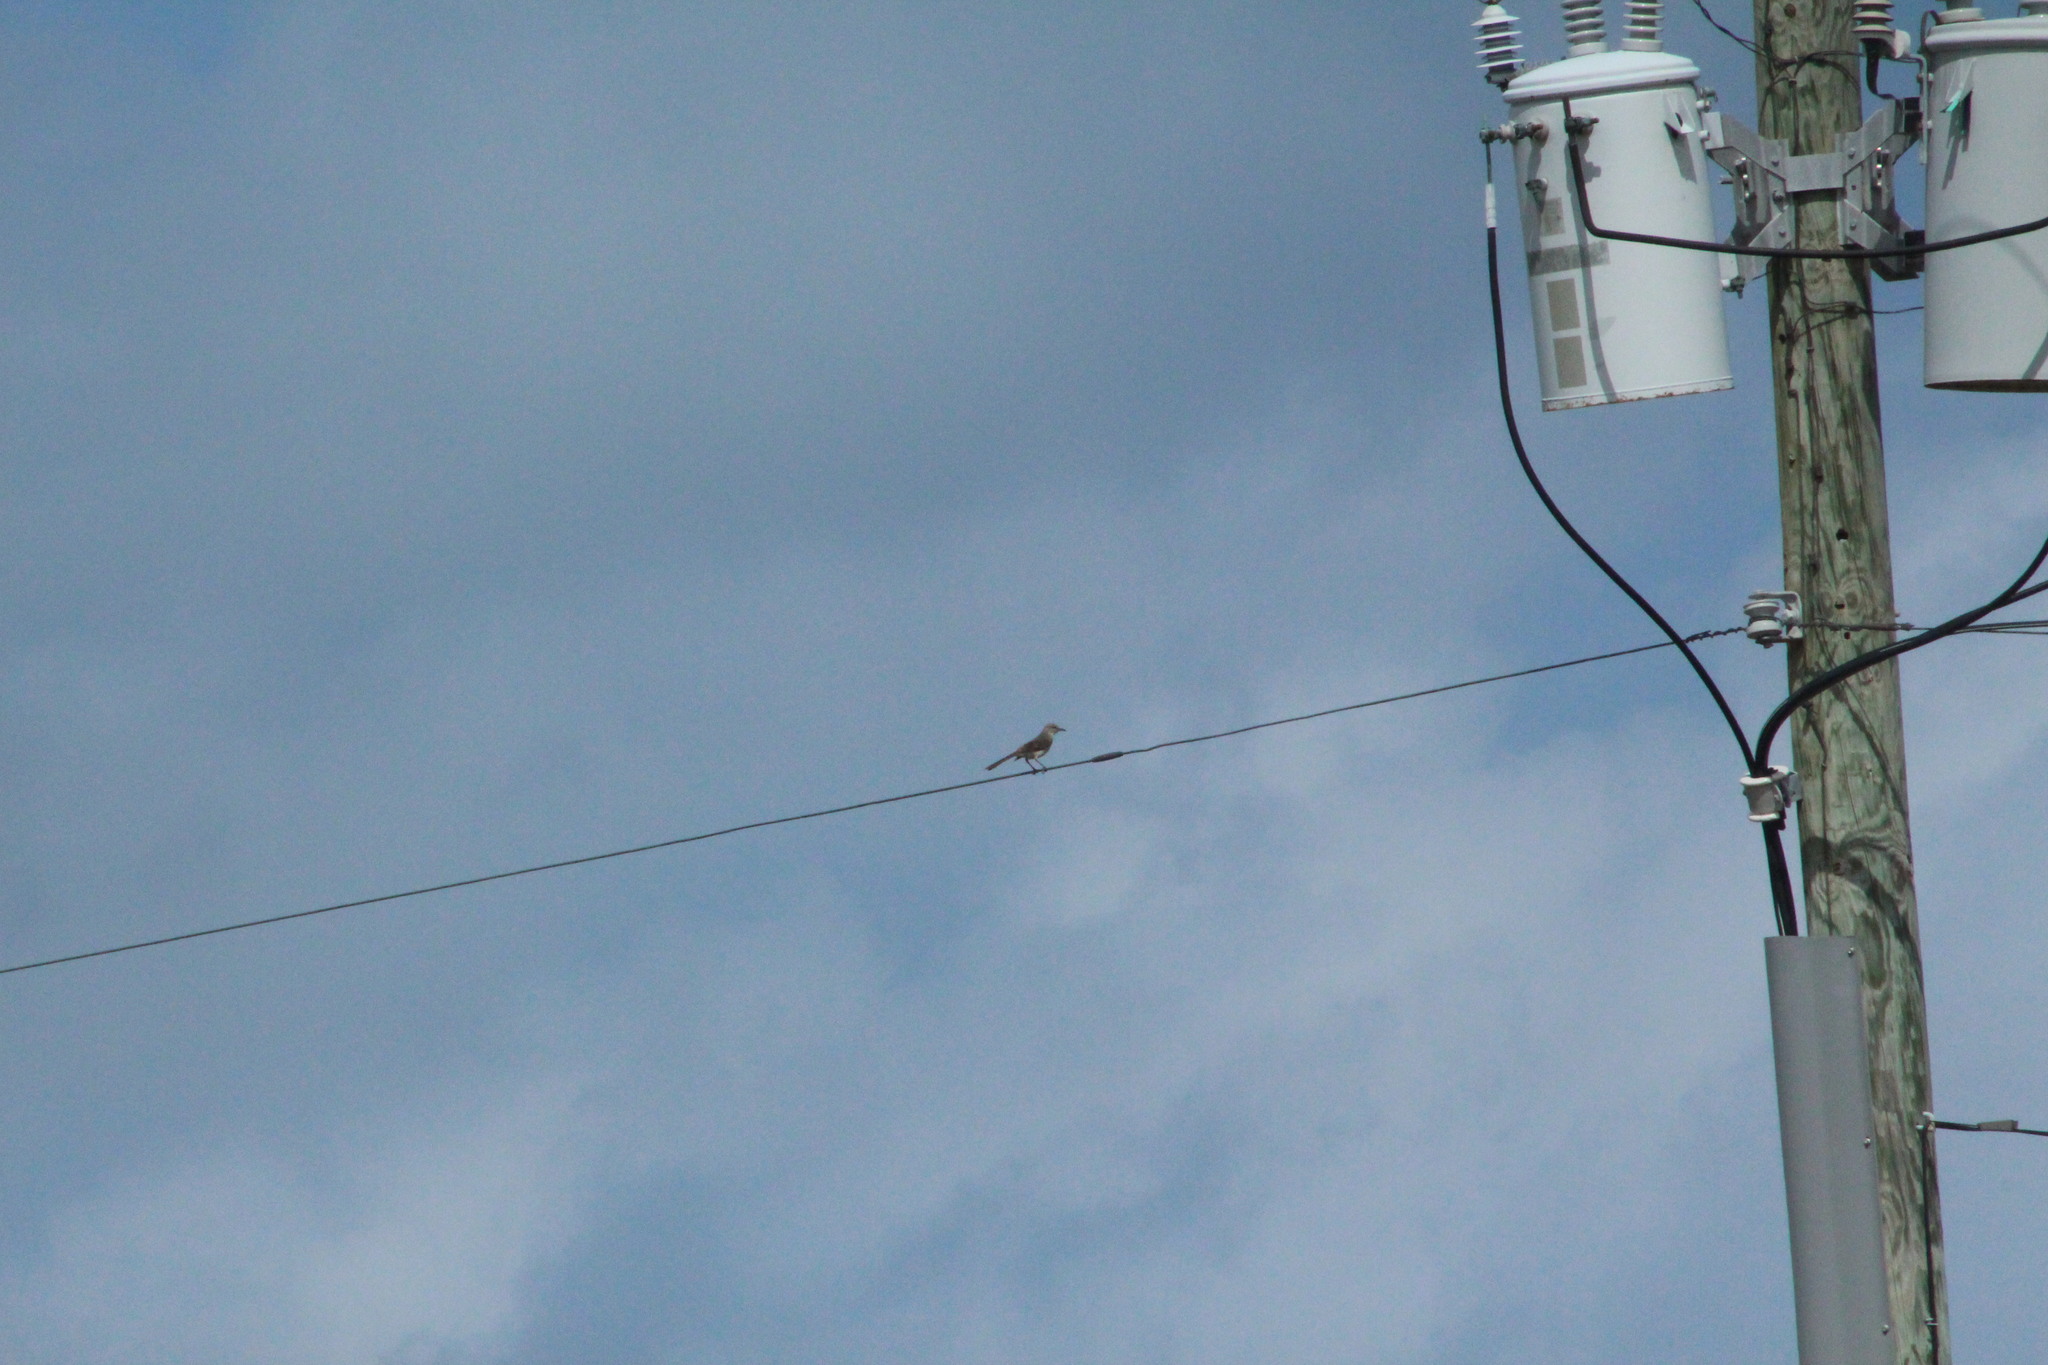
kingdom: Animalia
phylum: Chordata
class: Aves
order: Passeriformes
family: Mimidae
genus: Mimus
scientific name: Mimus polyglottos
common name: Northern mockingbird
